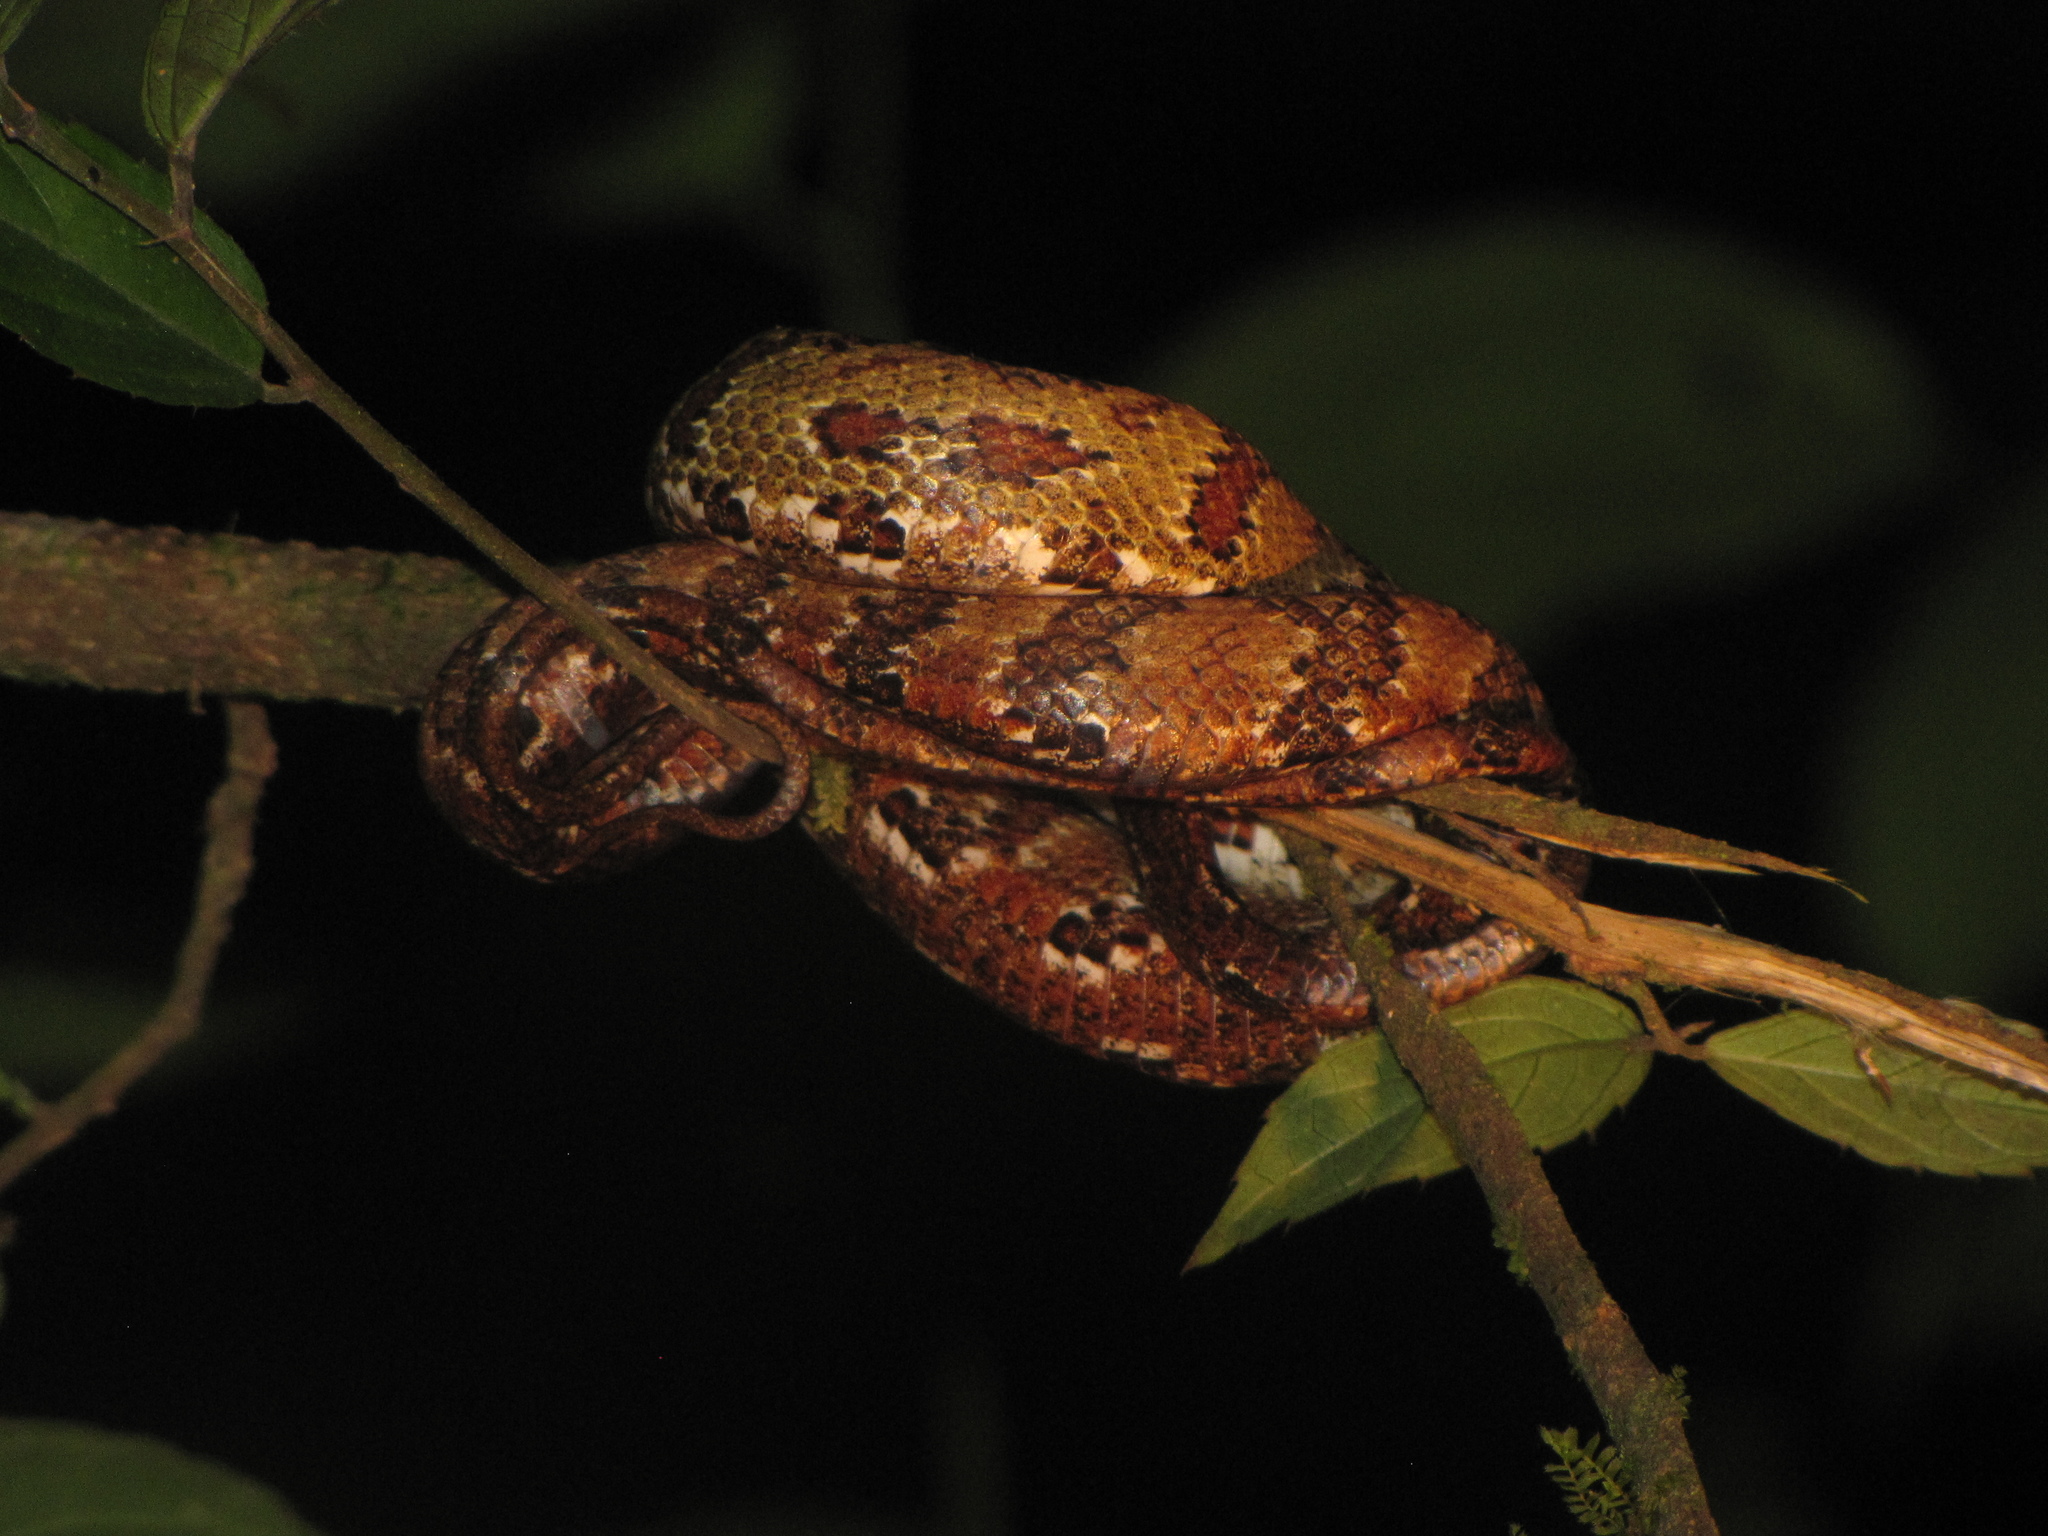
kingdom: Animalia
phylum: Chordata
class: Squamata
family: Colubridae
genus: Phrynonax
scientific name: Phrynonax poecilonotus
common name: Puffing snake
